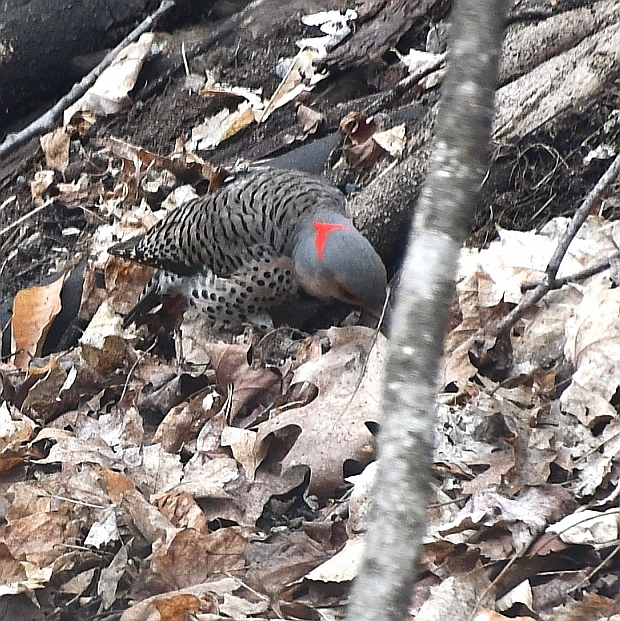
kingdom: Animalia
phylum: Chordata
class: Aves
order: Piciformes
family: Picidae
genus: Colaptes
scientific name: Colaptes auratus
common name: Northern flicker
